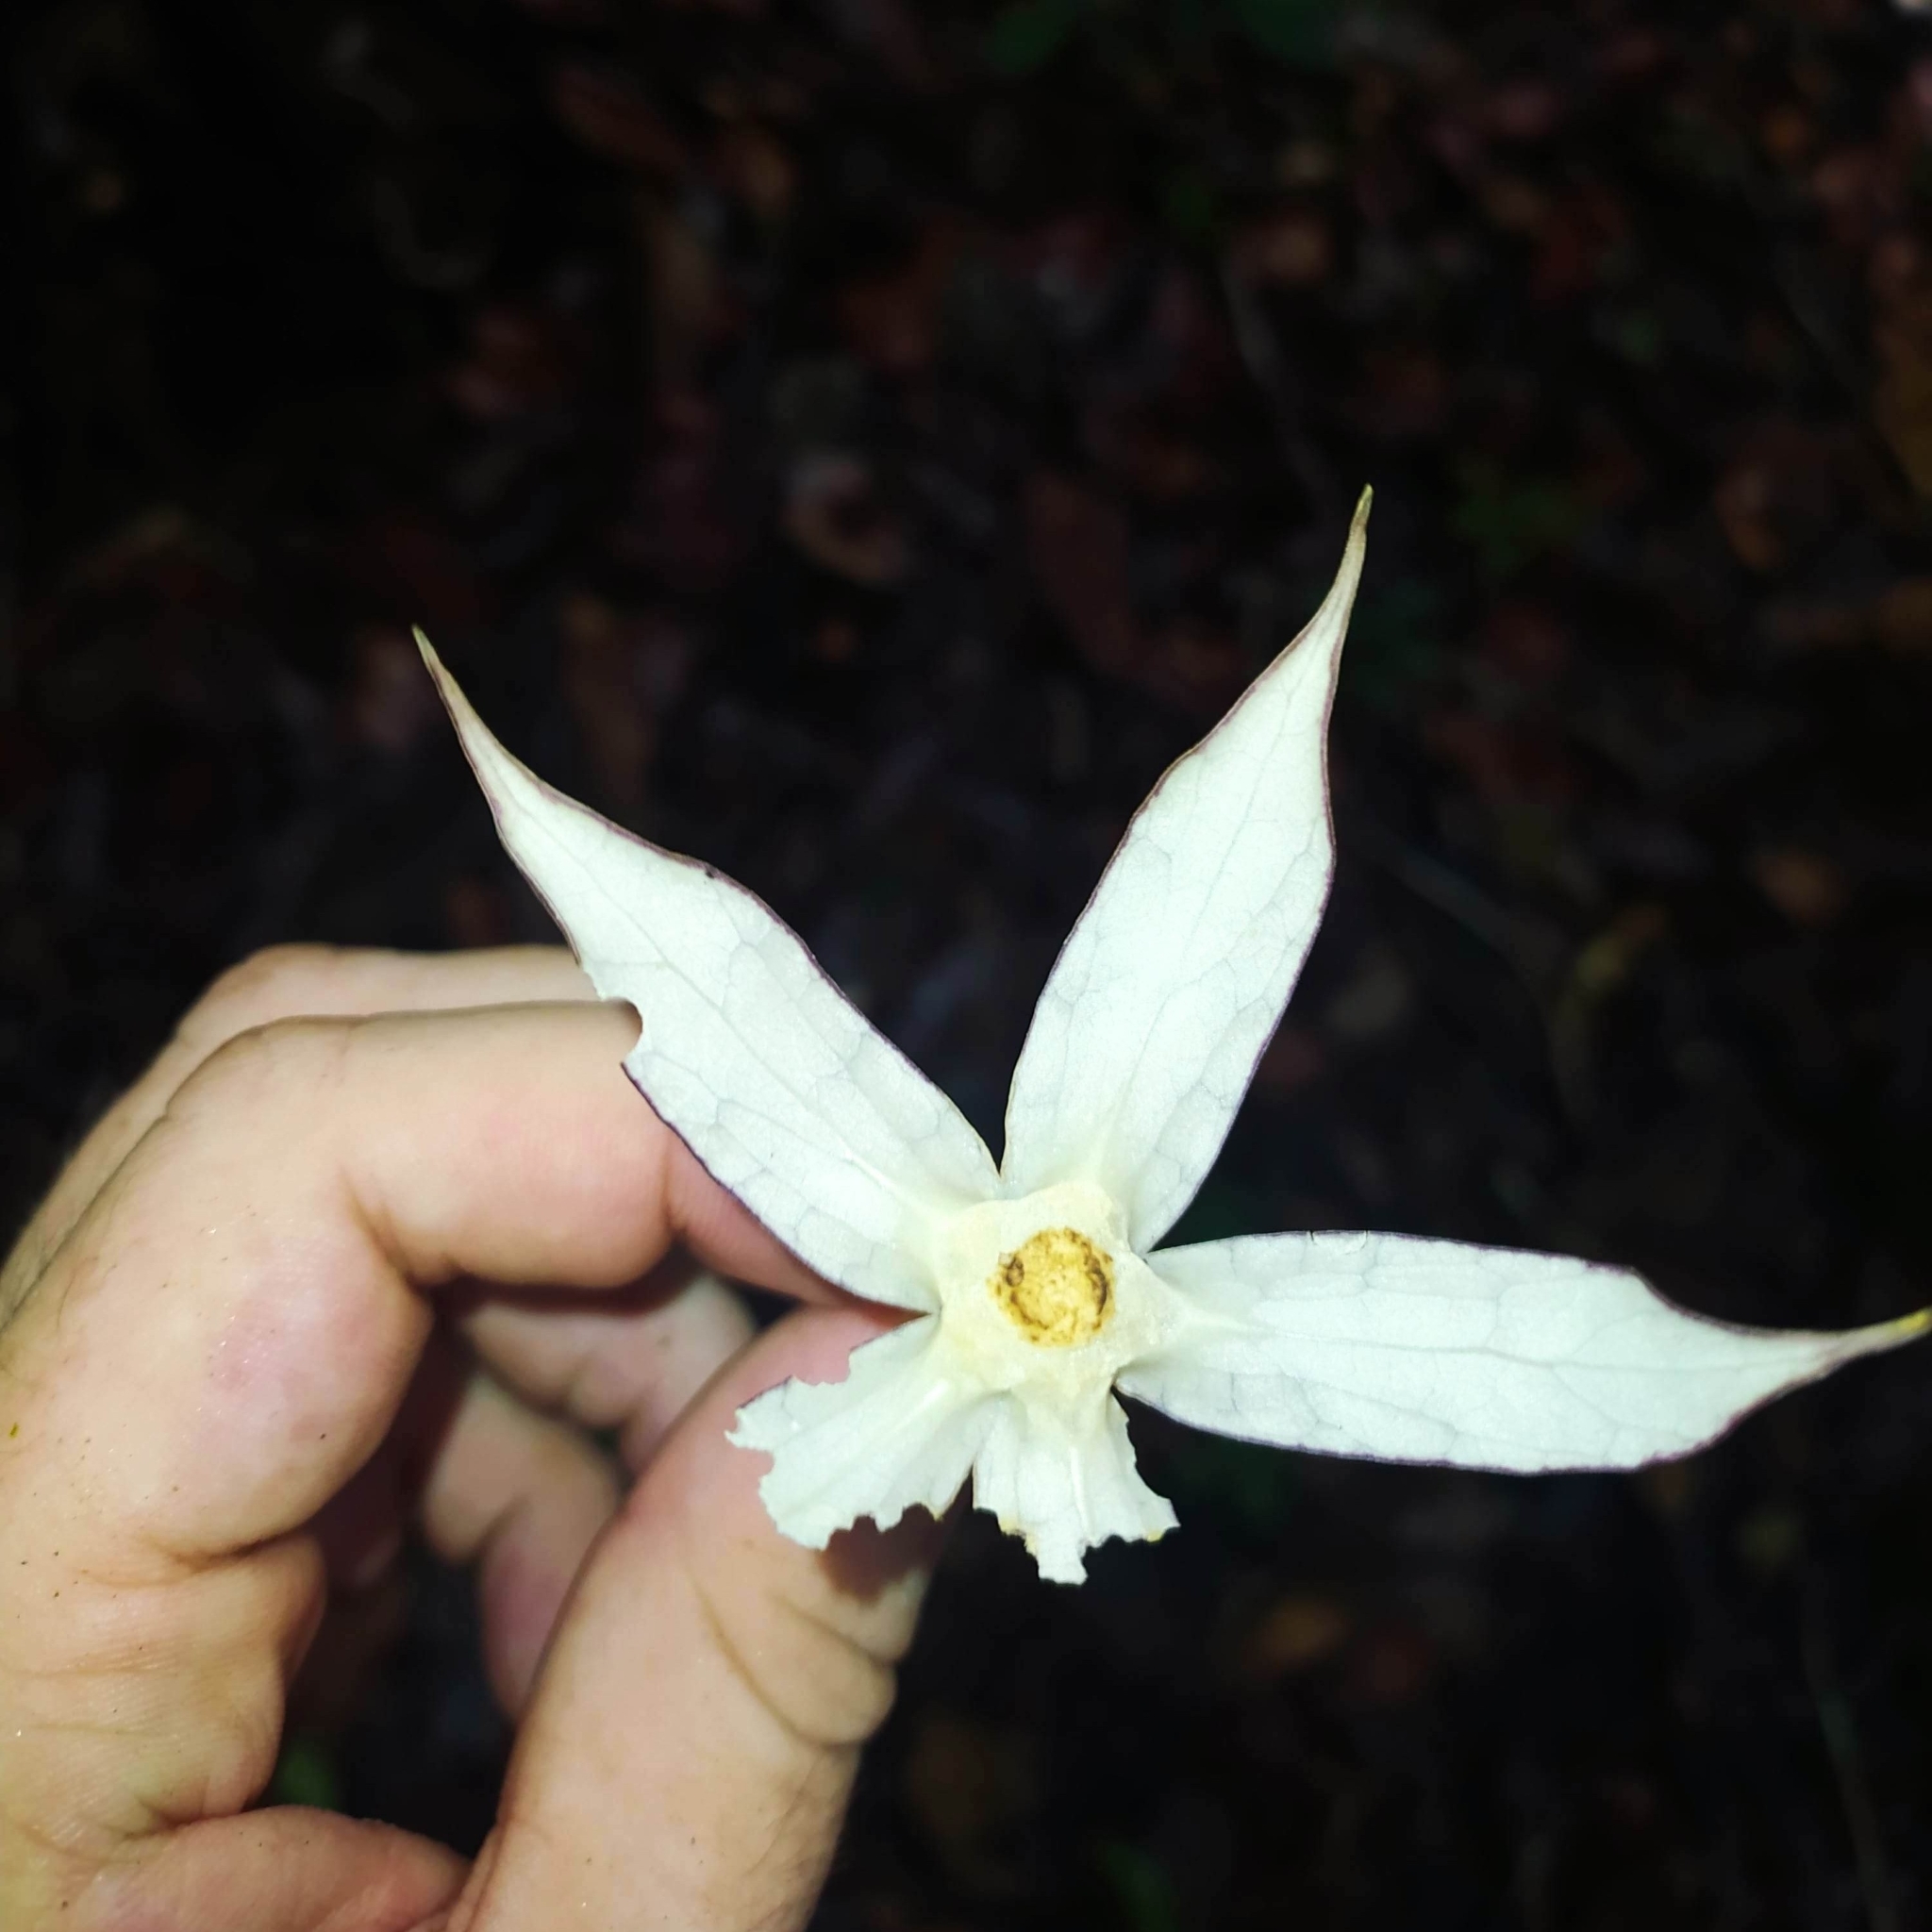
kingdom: Plantae
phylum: Tracheophyta
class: Magnoliopsida
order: Solanales
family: Solanaceae
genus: Markea
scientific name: Markea longiflora
